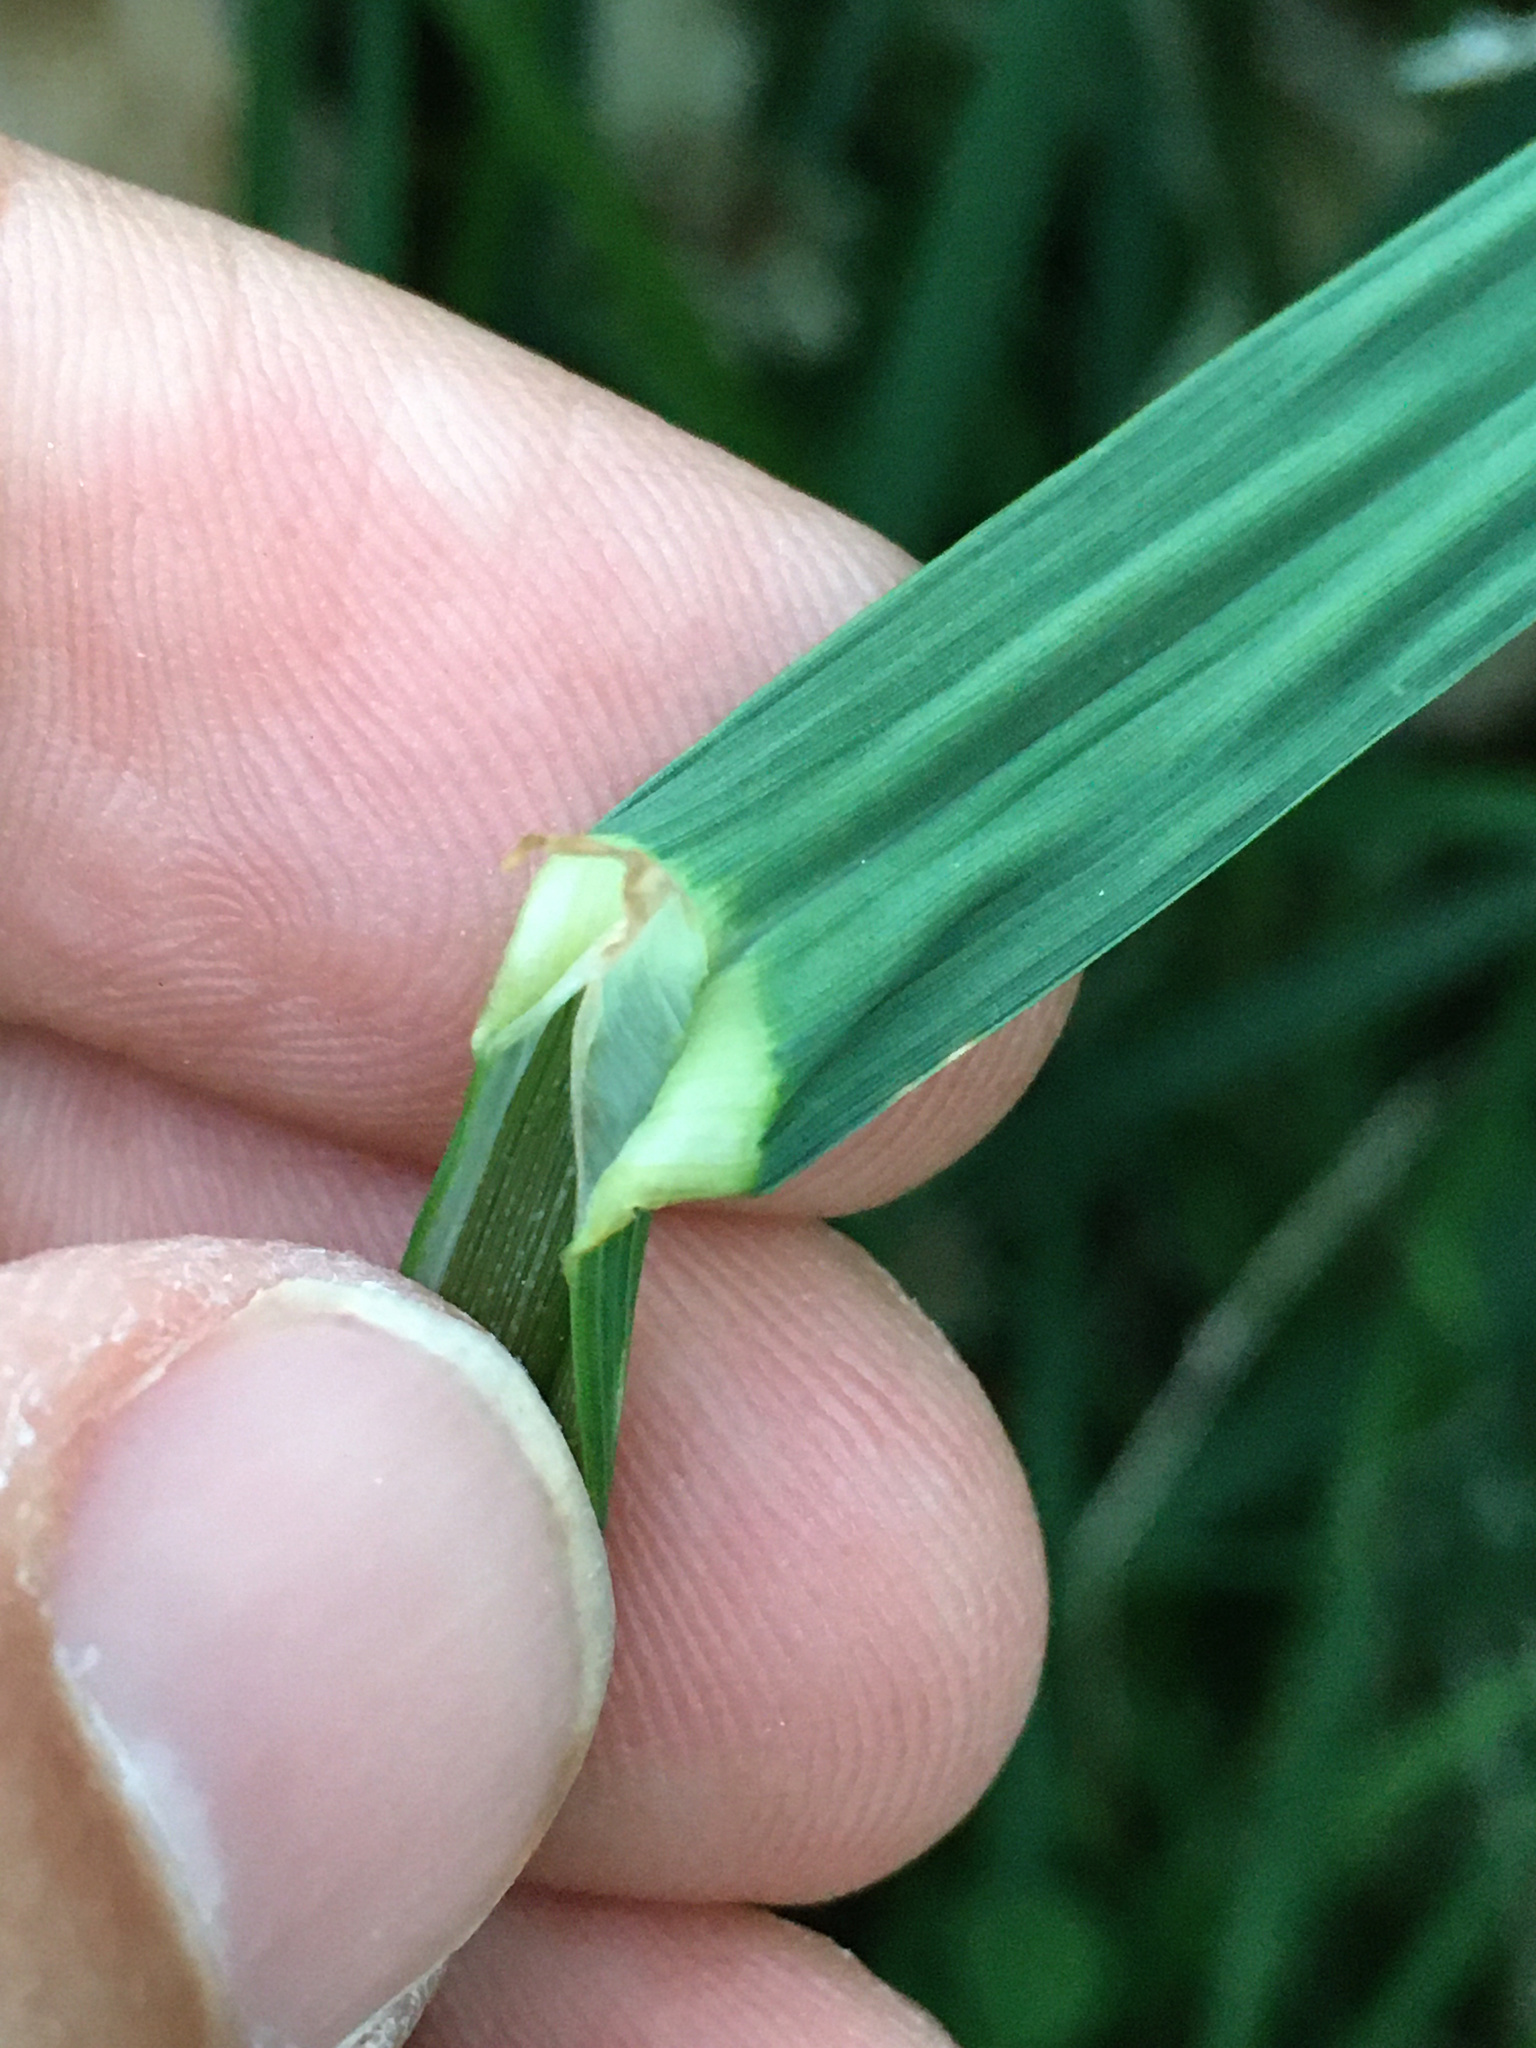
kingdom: Plantae
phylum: Tracheophyta
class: Liliopsida
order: Poales
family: Poaceae
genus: Dactylis
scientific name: Dactylis glomerata
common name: Orchardgrass
